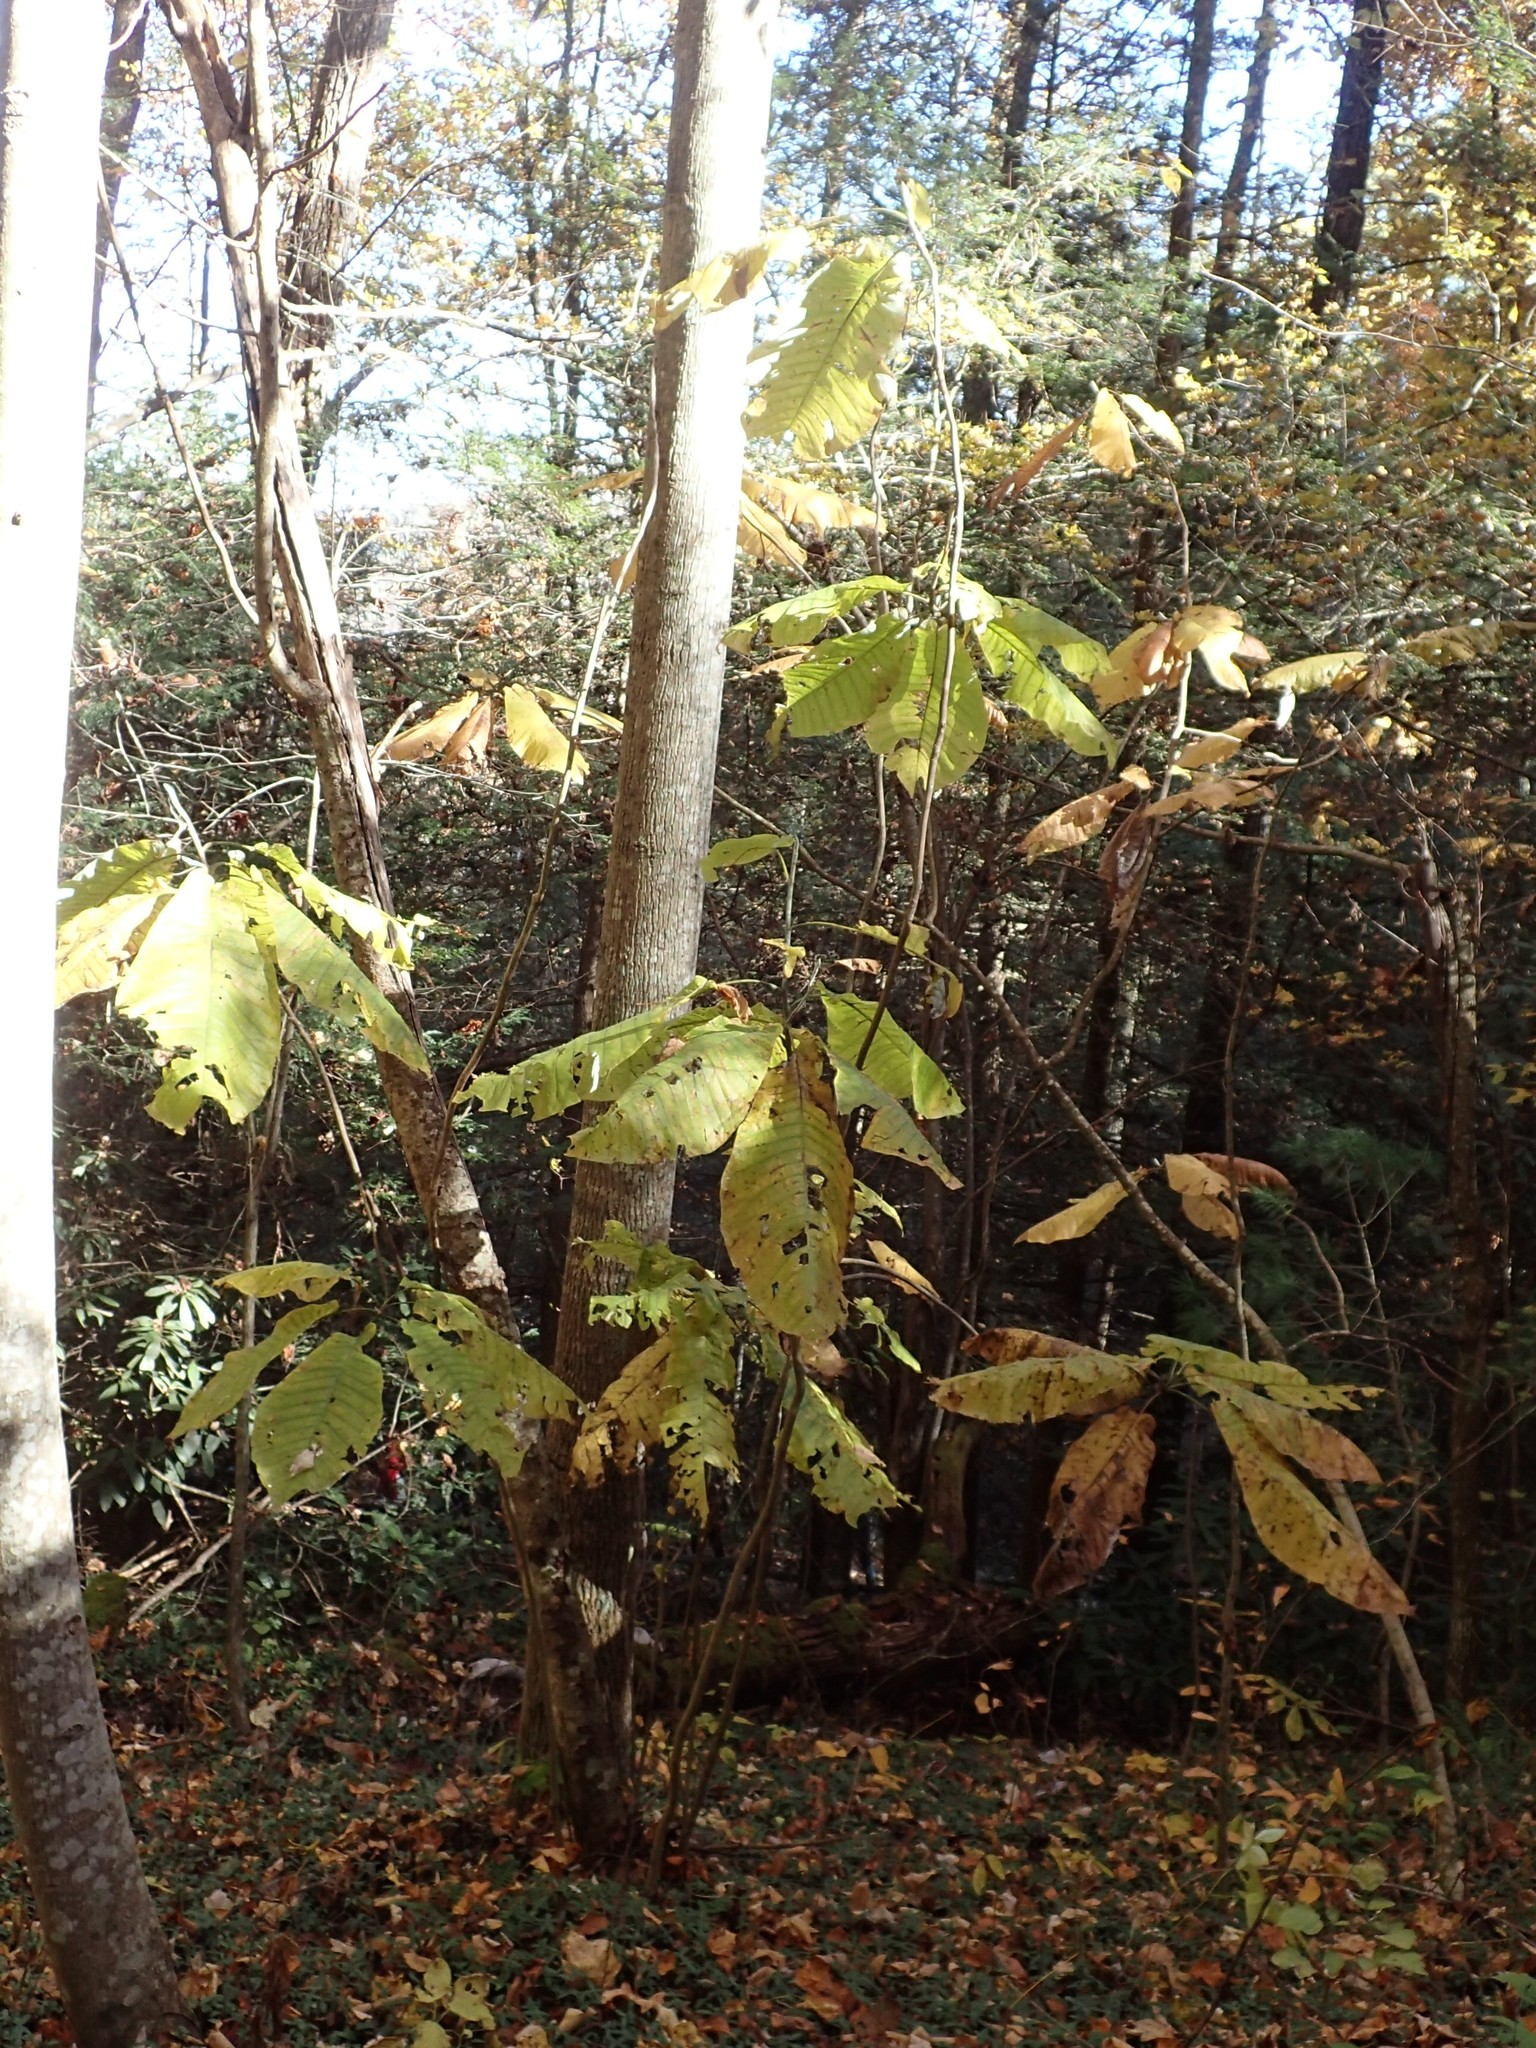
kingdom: Plantae
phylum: Tracheophyta
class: Magnoliopsida
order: Magnoliales
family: Magnoliaceae
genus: Magnolia
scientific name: Magnolia macrophylla
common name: Big-leaf magnolia
